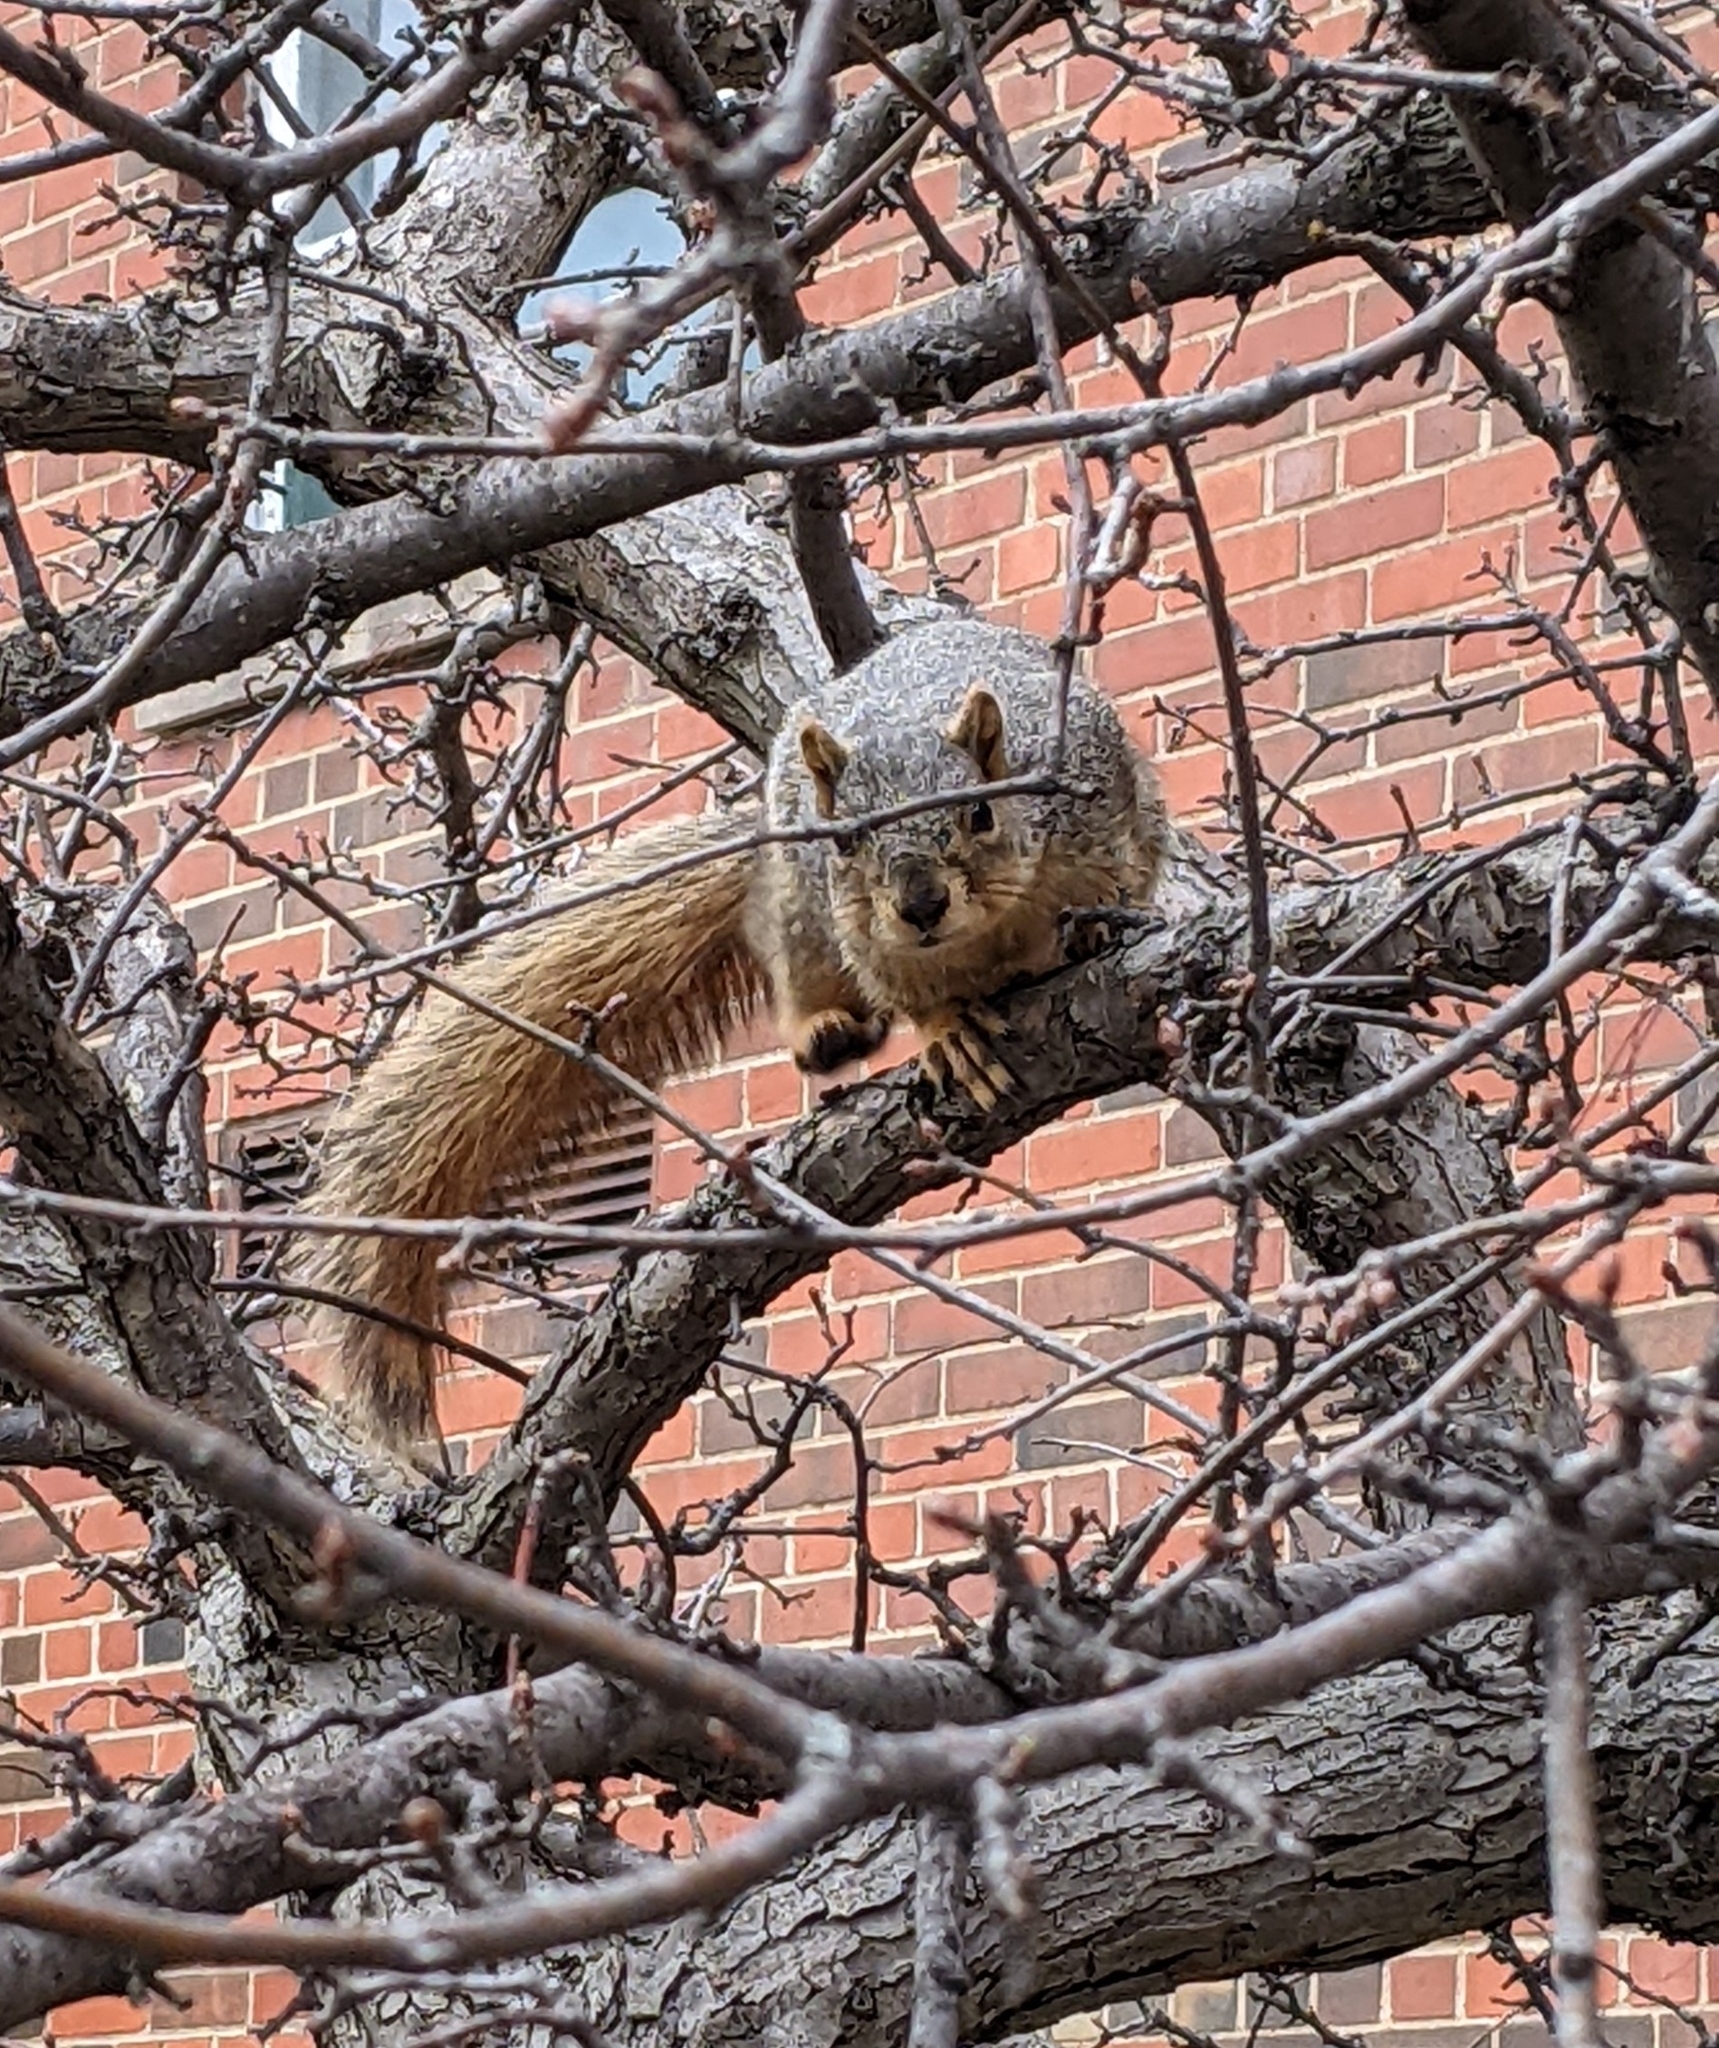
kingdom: Animalia
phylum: Chordata
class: Mammalia
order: Rodentia
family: Sciuridae
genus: Sciurus
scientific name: Sciurus niger
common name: Fox squirrel
